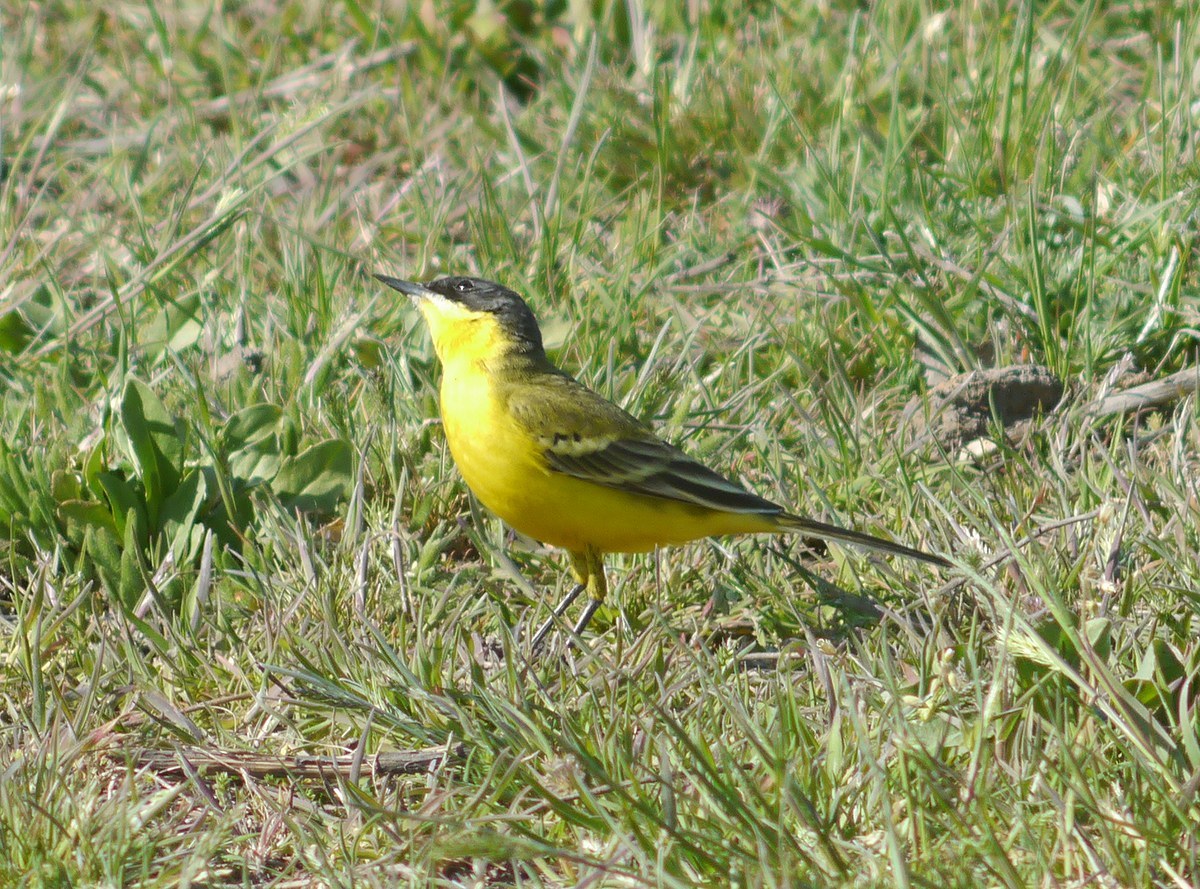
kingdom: Animalia
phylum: Chordata
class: Aves
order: Passeriformes
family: Motacillidae
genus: Motacilla
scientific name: Motacilla flava
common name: Western yellow wagtail
